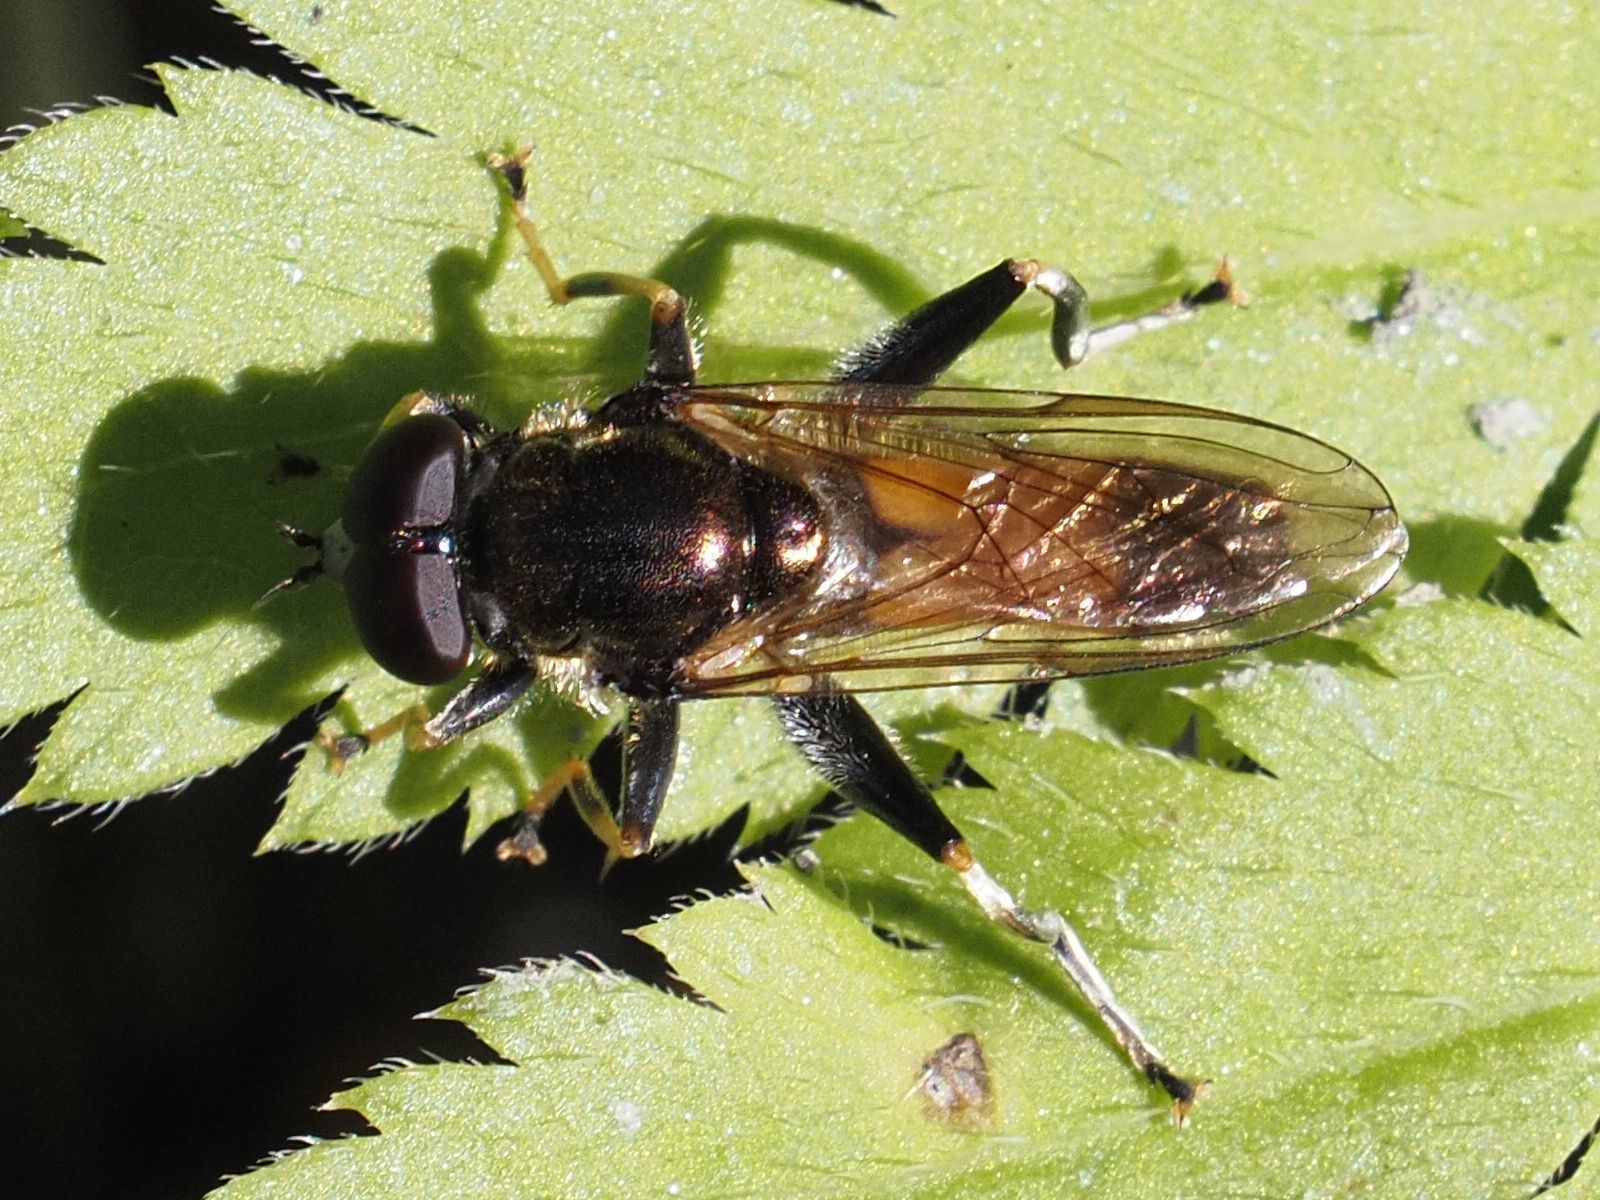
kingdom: Animalia
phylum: Arthropoda
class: Insecta
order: Diptera
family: Syrphidae
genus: Xylota
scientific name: Xylota segnis
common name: Brown-toed forest fly
